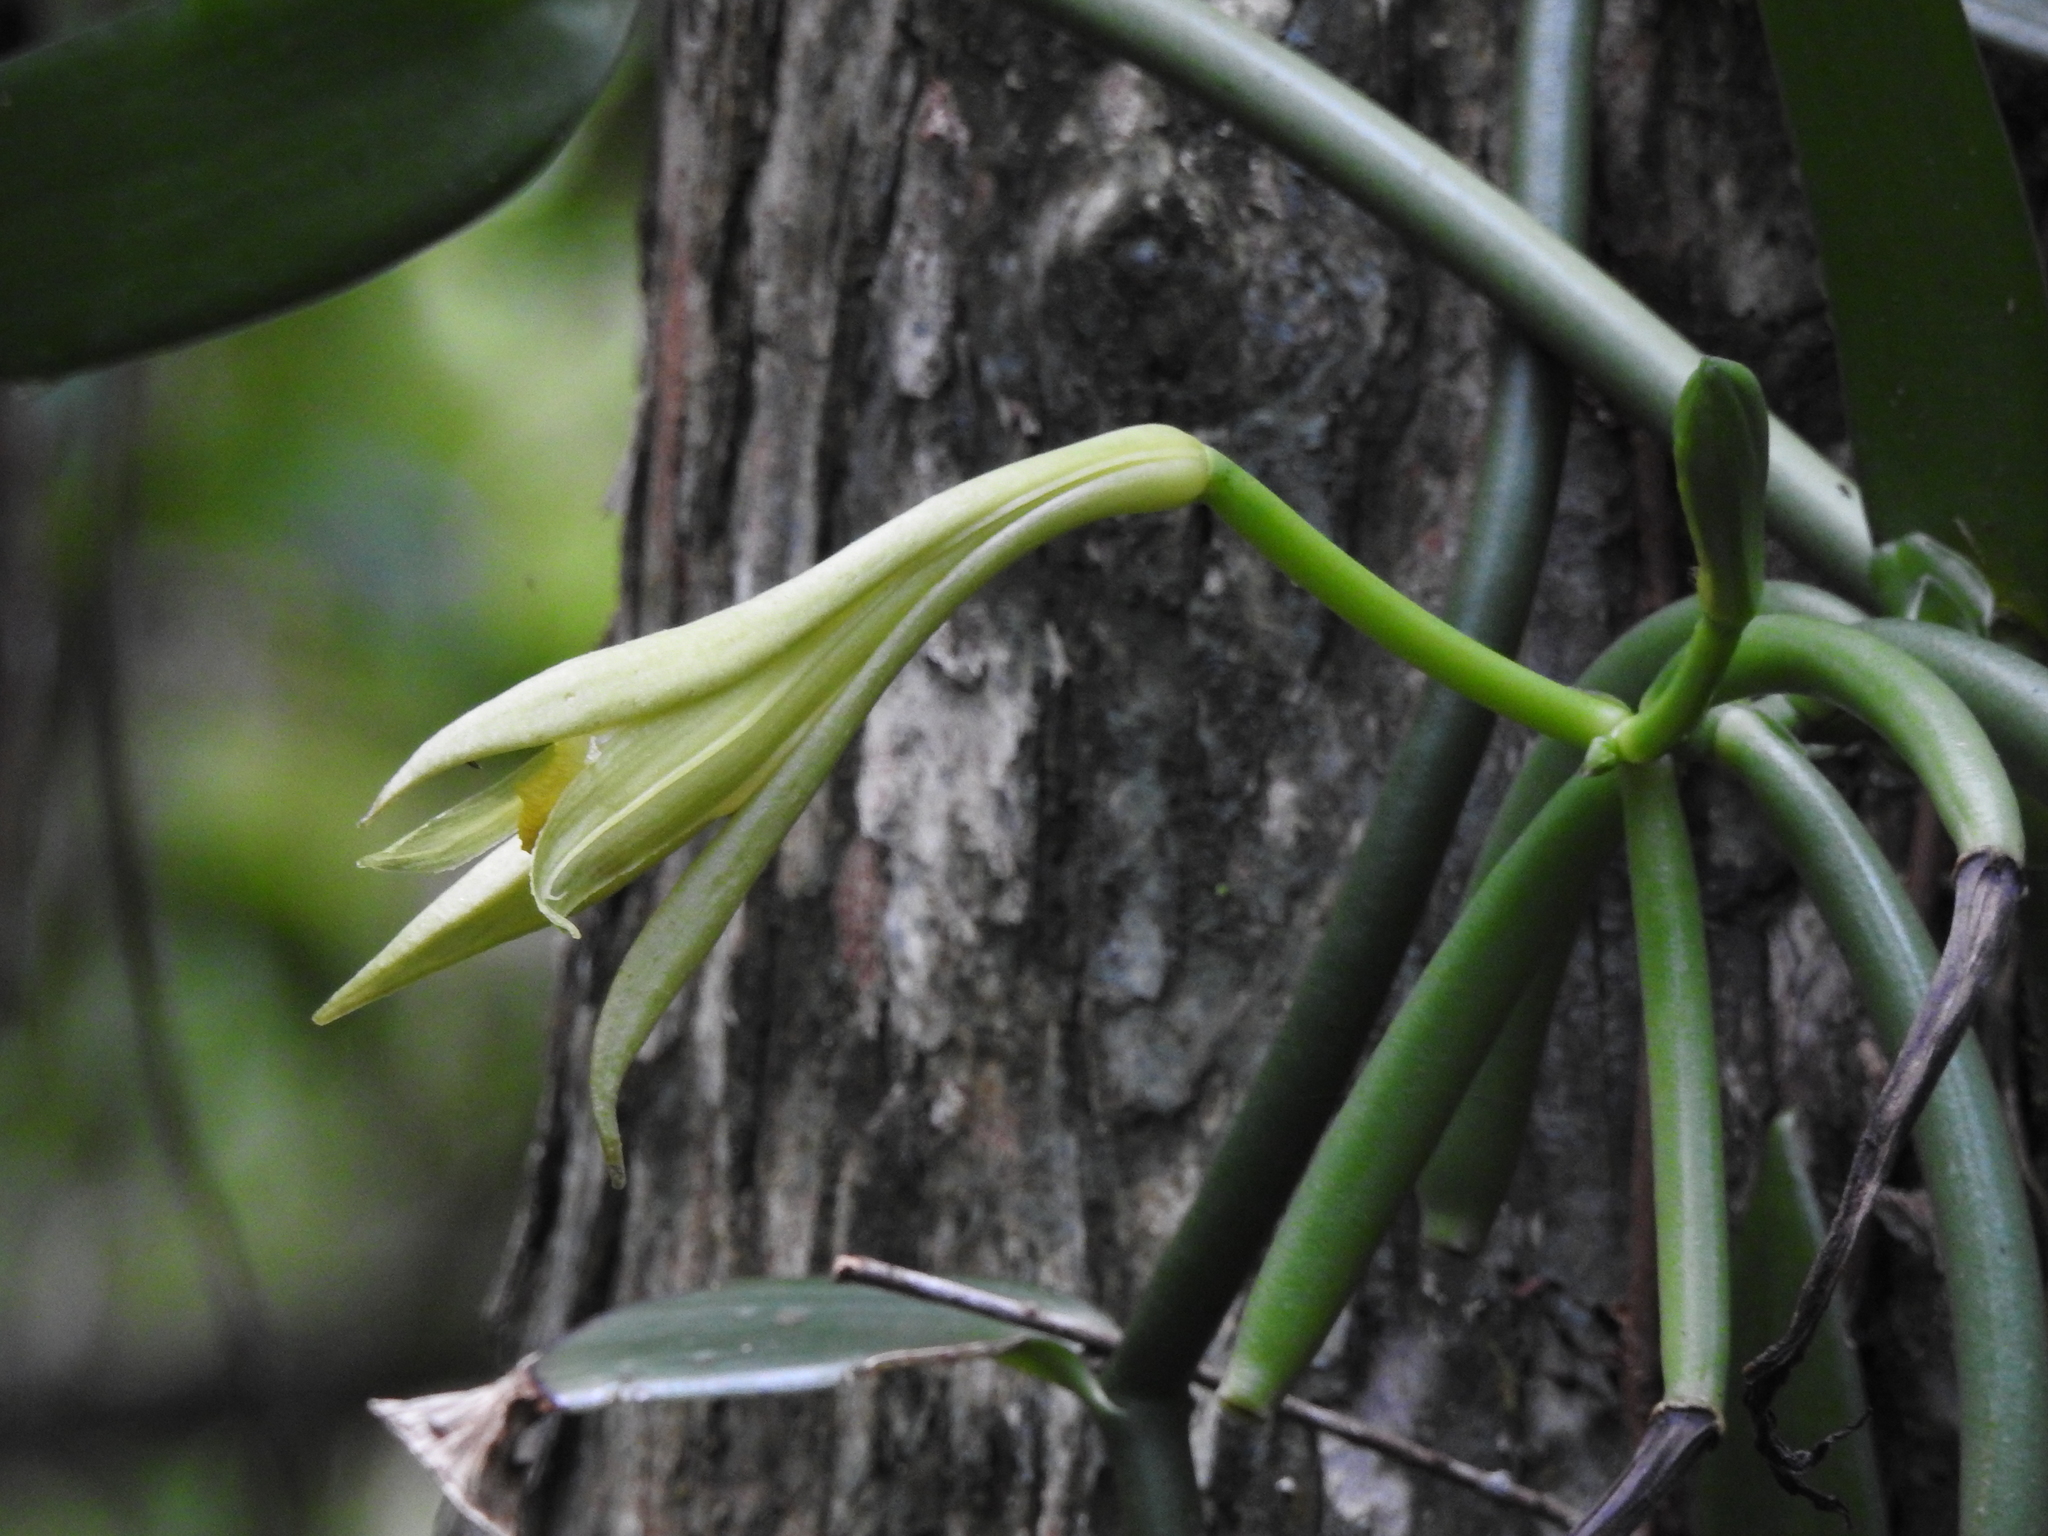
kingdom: Plantae
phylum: Tracheophyta
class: Liliopsida
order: Asparagales
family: Orchidaceae
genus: Vanilla
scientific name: Vanilla phaeantha
